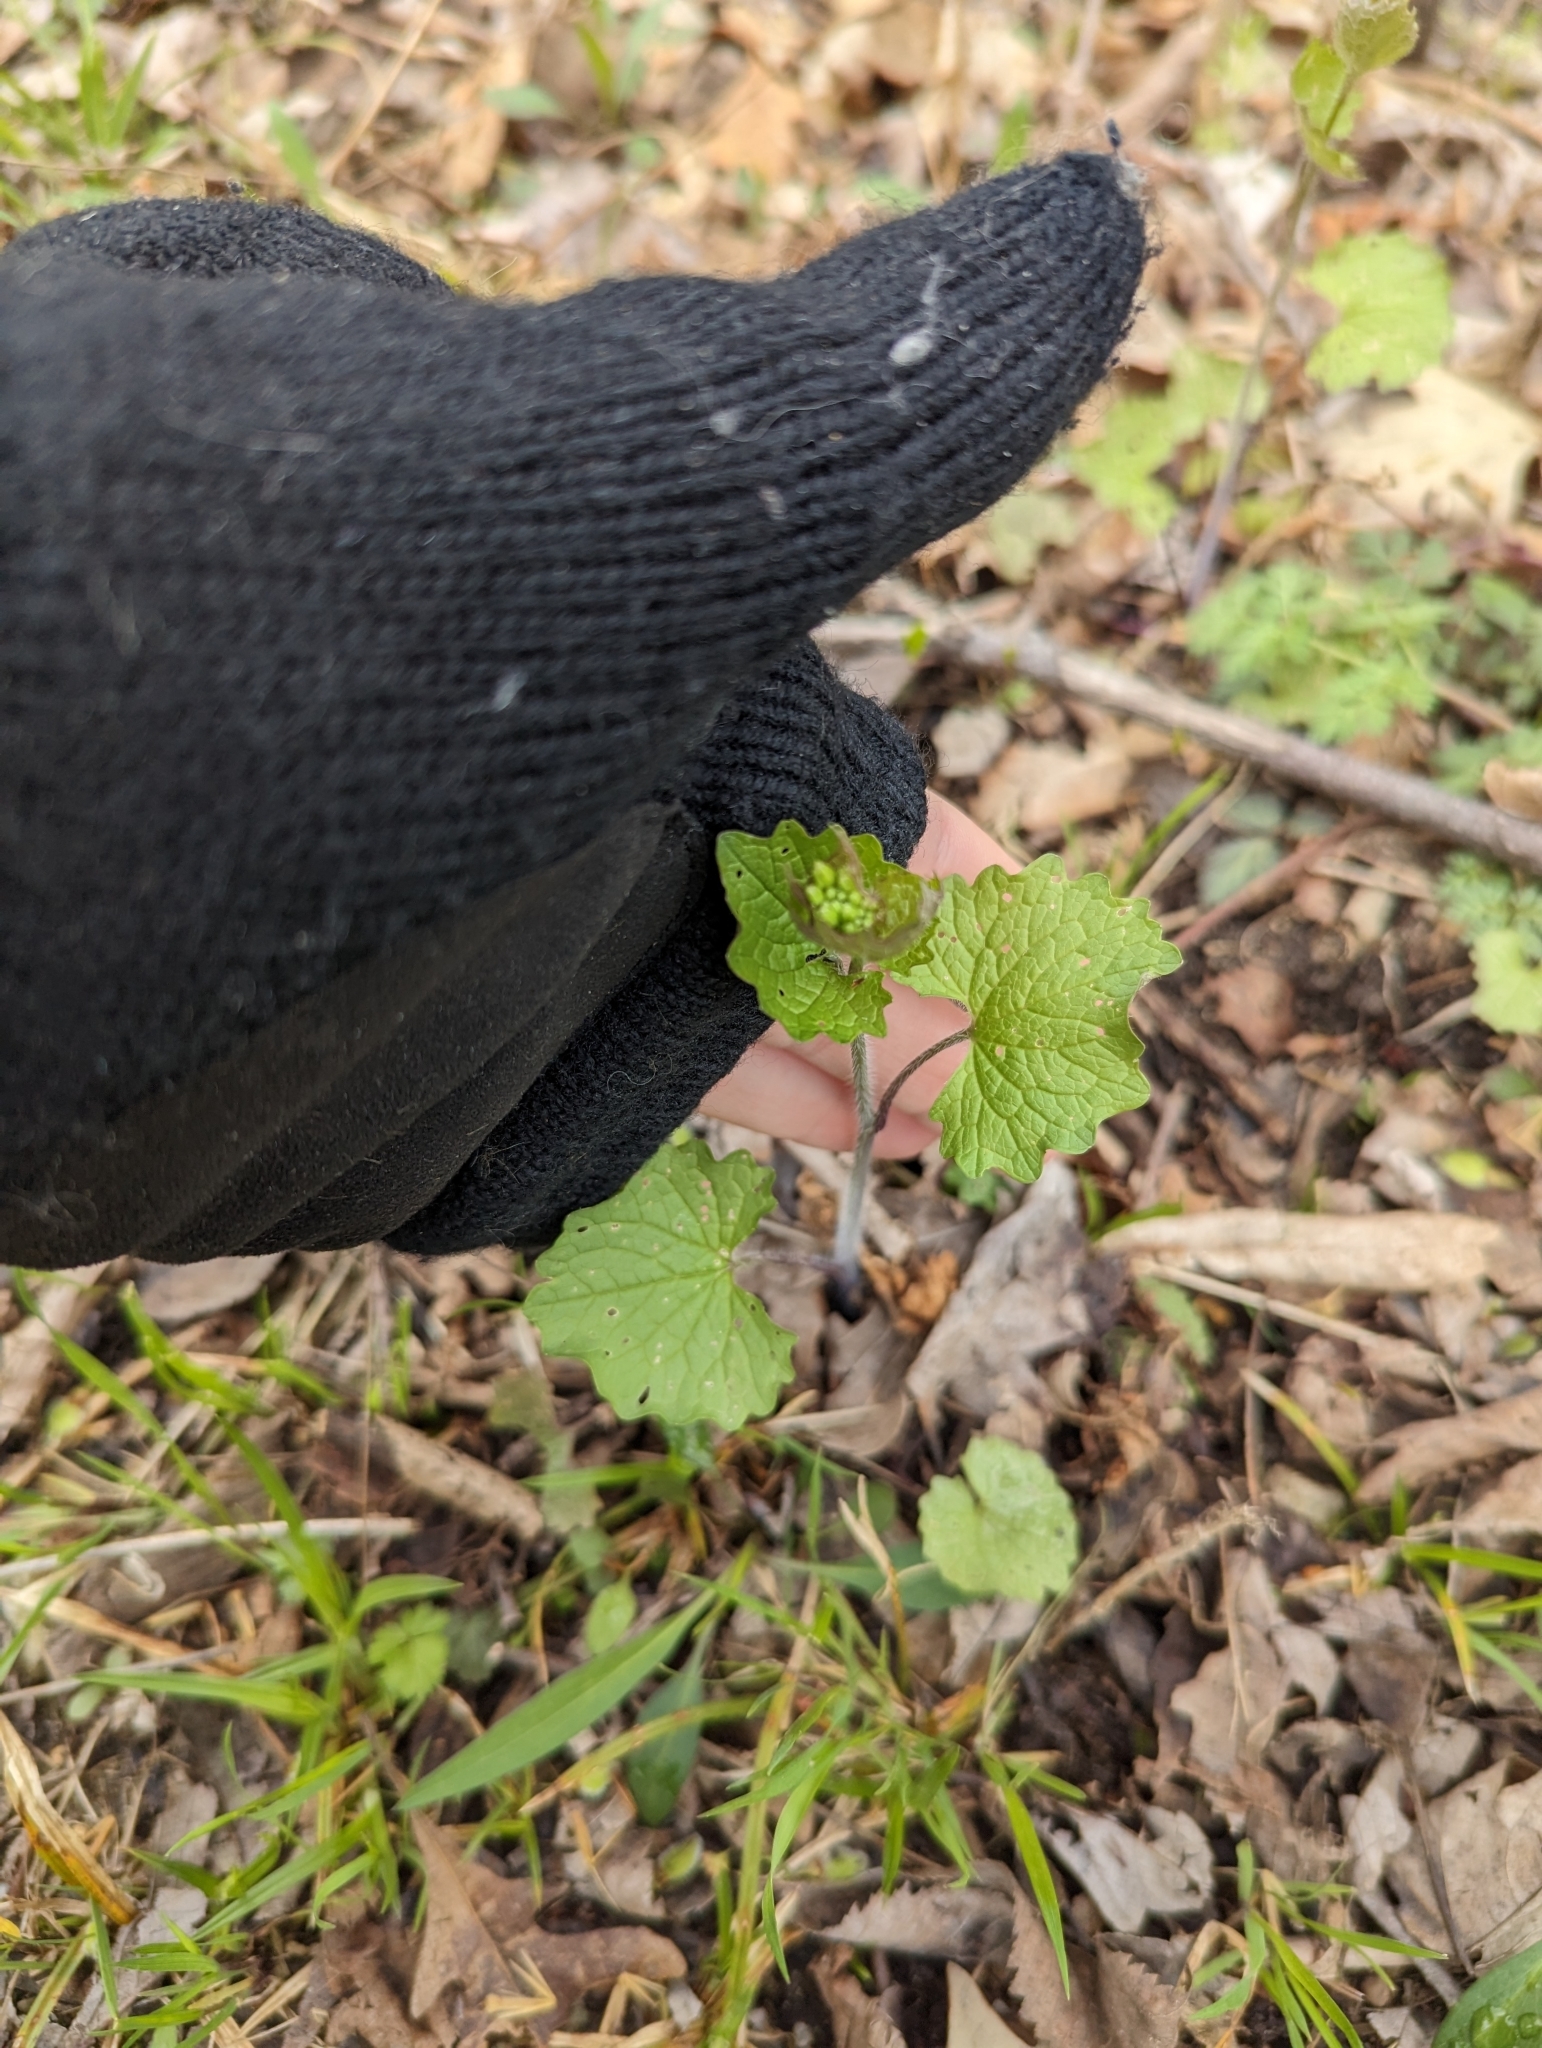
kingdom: Plantae
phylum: Tracheophyta
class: Magnoliopsida
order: Brassicales
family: Brassicaceae
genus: Alliaria
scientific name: Alliaria petiolata
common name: Garlic mustard
